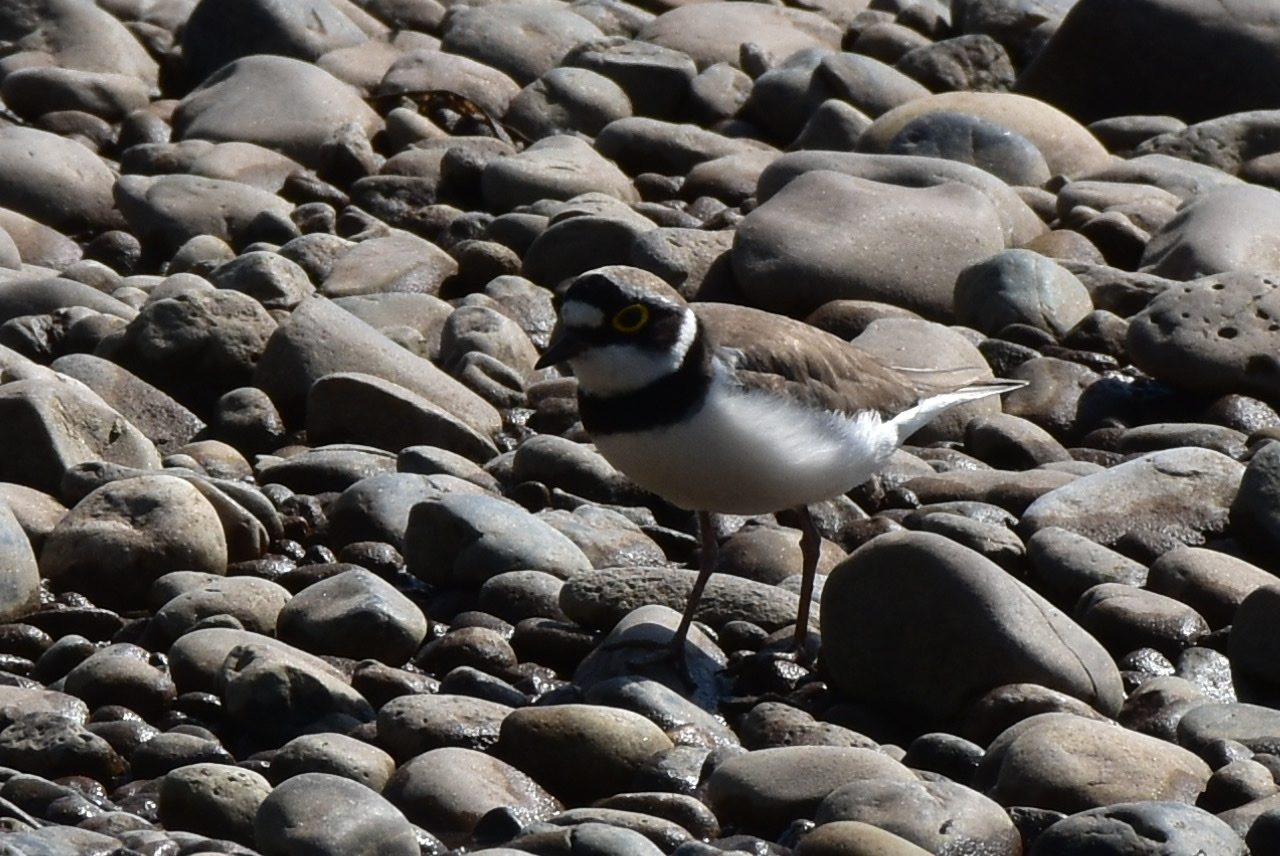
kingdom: Animalia
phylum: Chordata
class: Aves
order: Charadriiformes
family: Charadriidae
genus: Charadrius
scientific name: Charadrius dubius
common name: Little ringed plover
